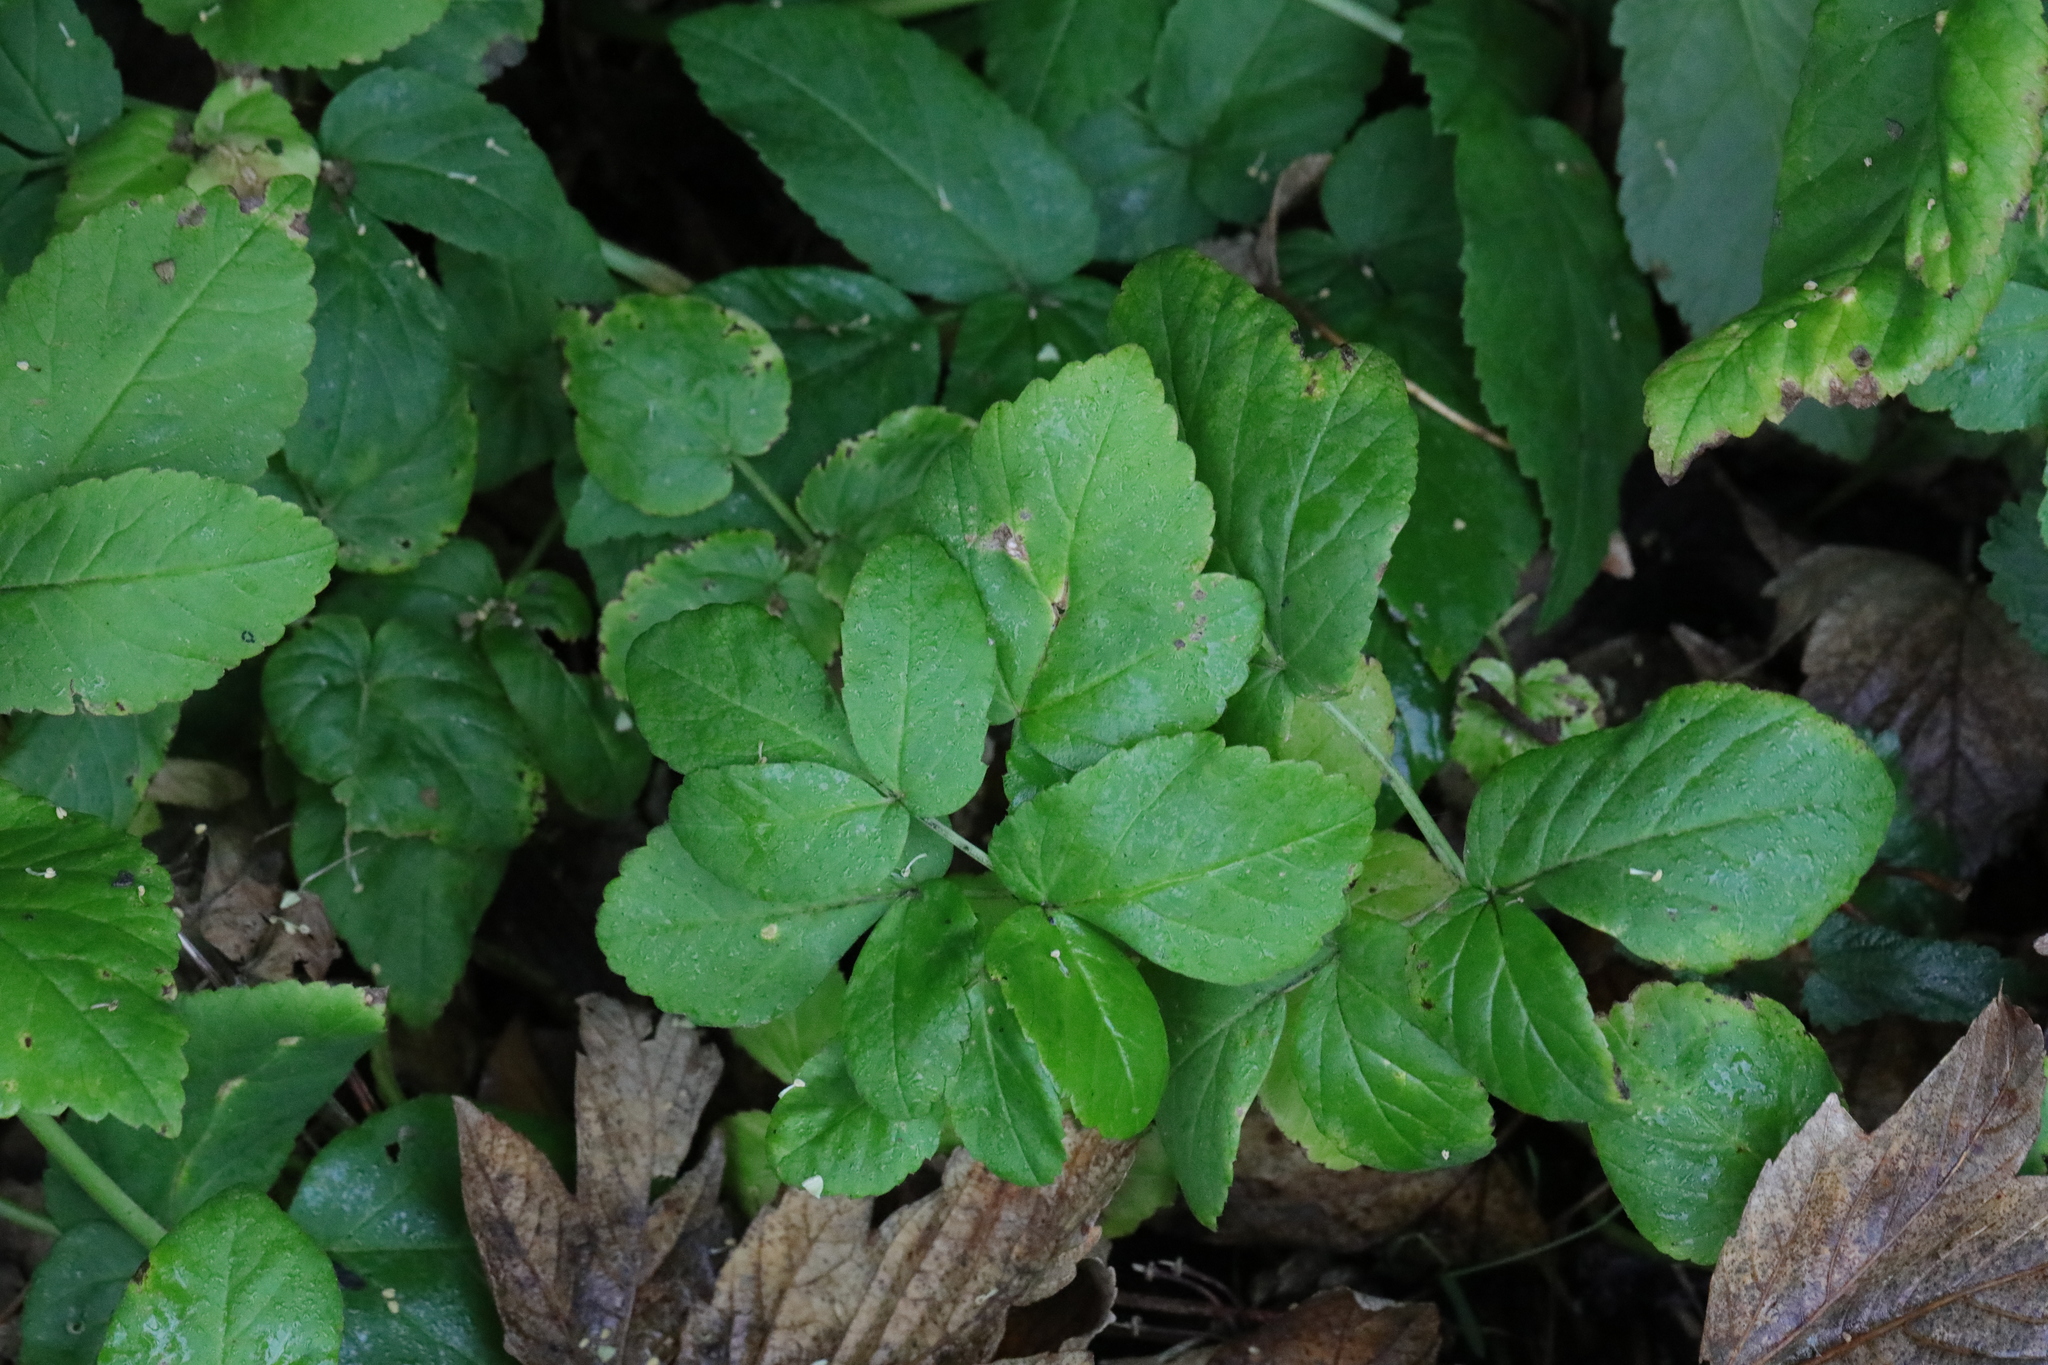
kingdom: Plantae
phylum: Tracheophyta
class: Magnoliopsida
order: Apiales
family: Apiaceae
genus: Aegopodium
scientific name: Aegopodium podagraria
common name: Ground-elder
